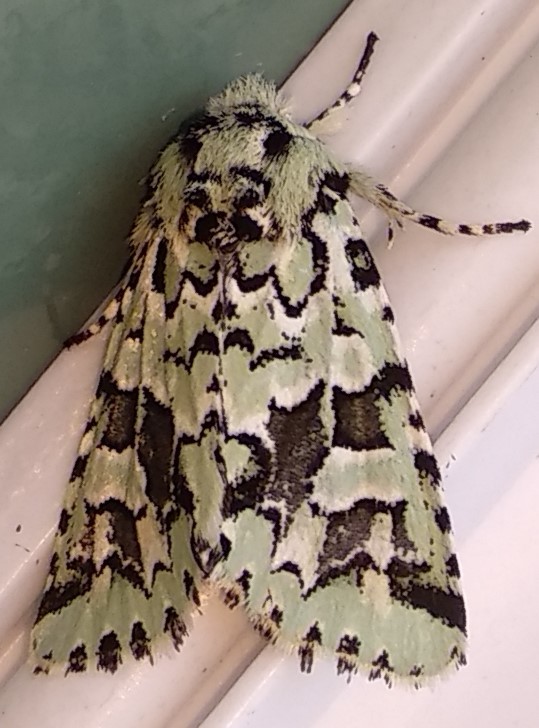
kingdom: Animalia
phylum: Arthropoda
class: Insecta
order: Lepidoptera
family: Noctuidae
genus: Feralia
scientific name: Feralia comstocki
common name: Comstock's sallow
